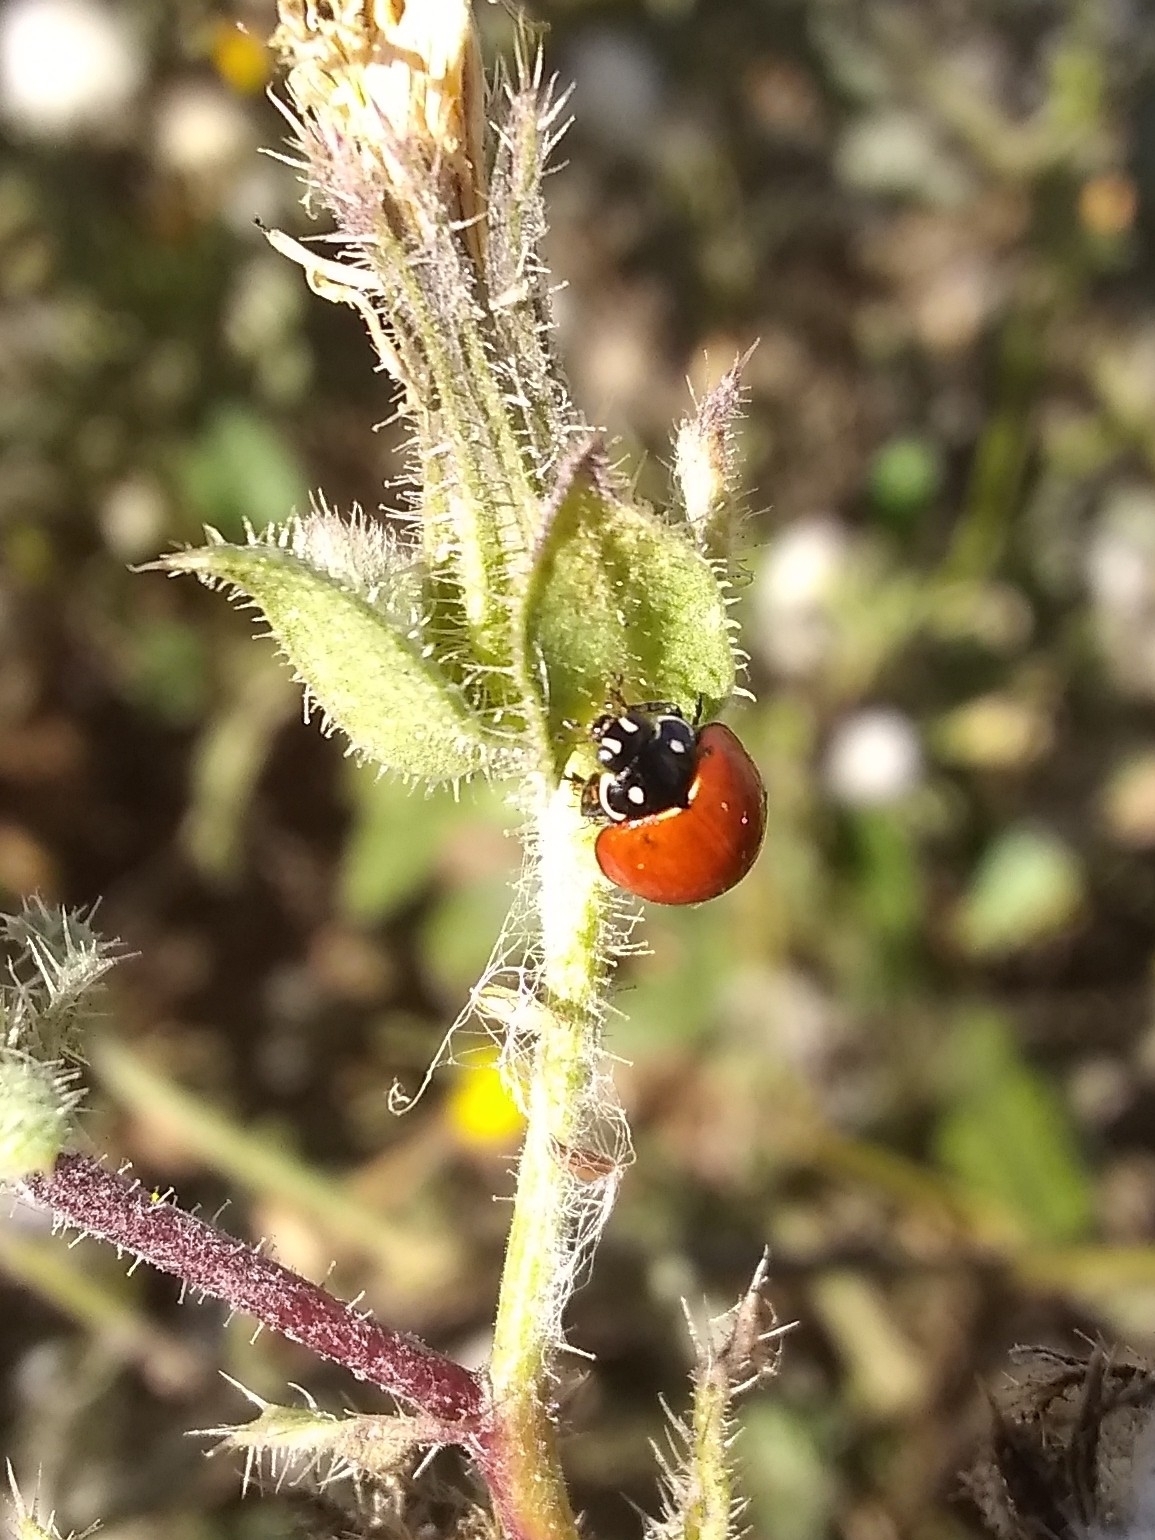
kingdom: Animalia
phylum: Arthropoda
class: Insecta
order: Coleoptera
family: Coccinellidae
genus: Cycloneda
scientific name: Cycloneda sanguinea
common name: Ladybird beetle
